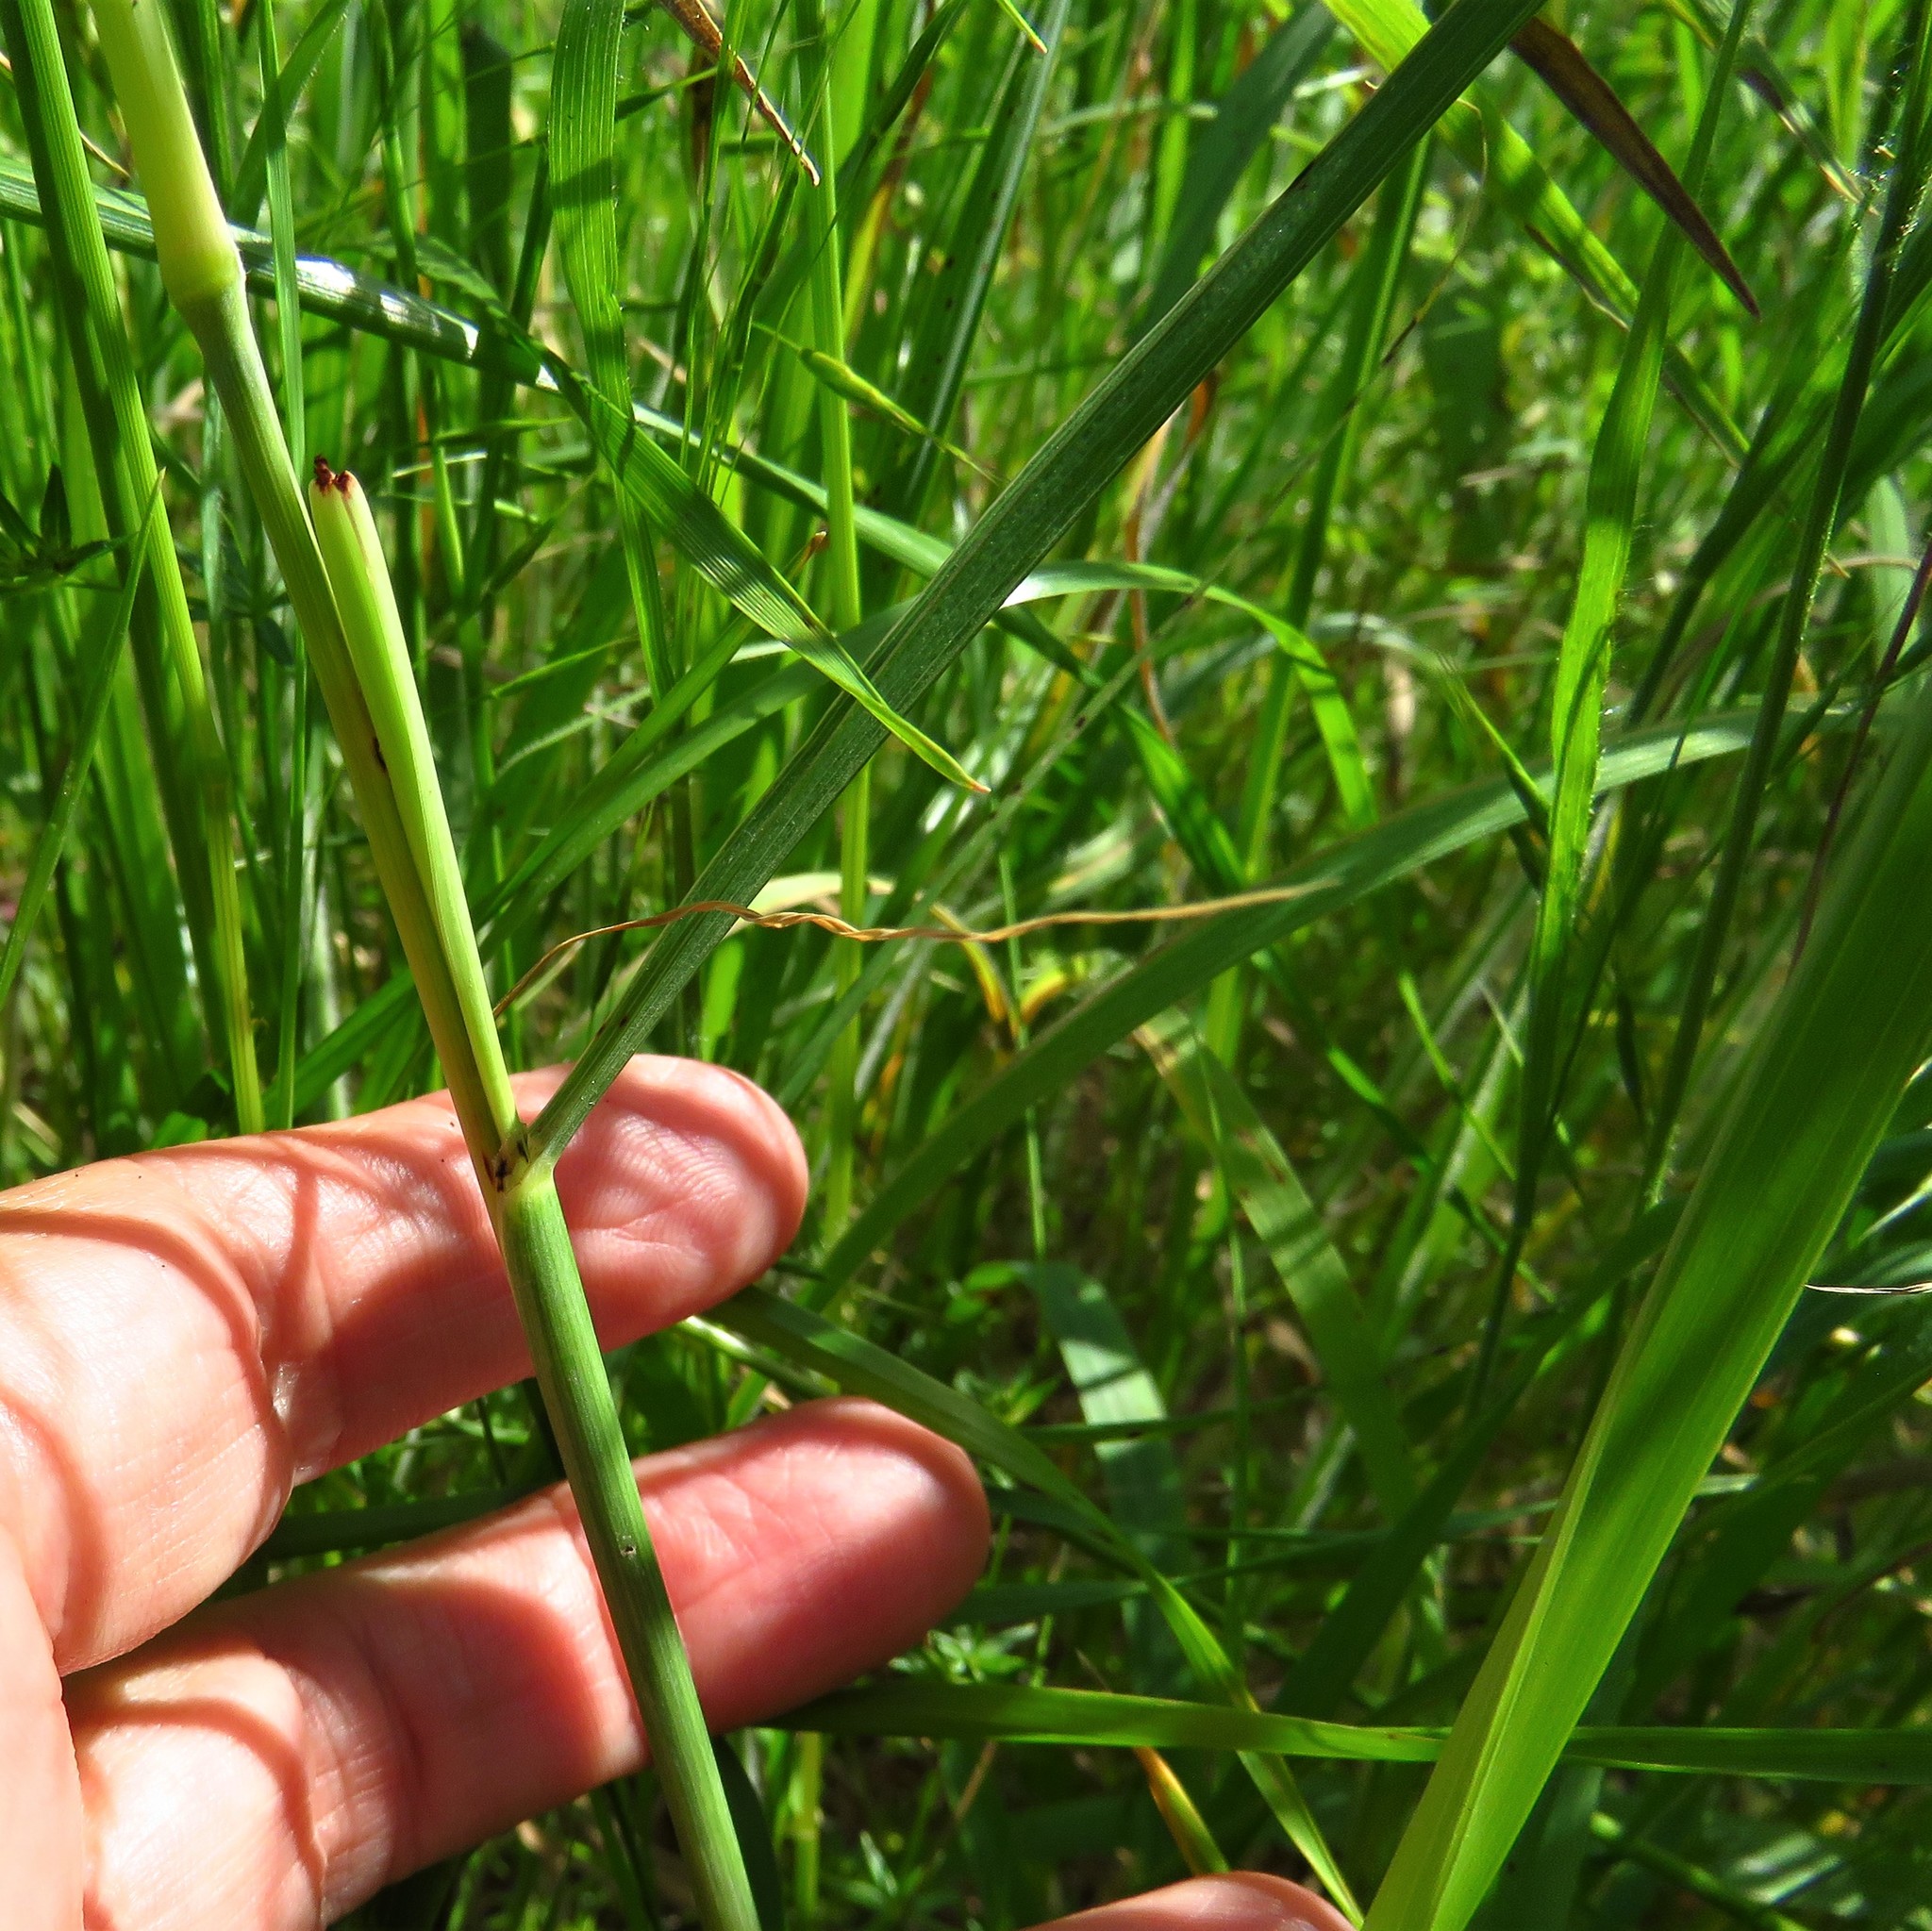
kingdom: Plantae
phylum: Tracheophyta
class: Liliopsida
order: Poales
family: Poaceae
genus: Sorghum
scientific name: Sorghum halepense
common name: Johnson-grass
